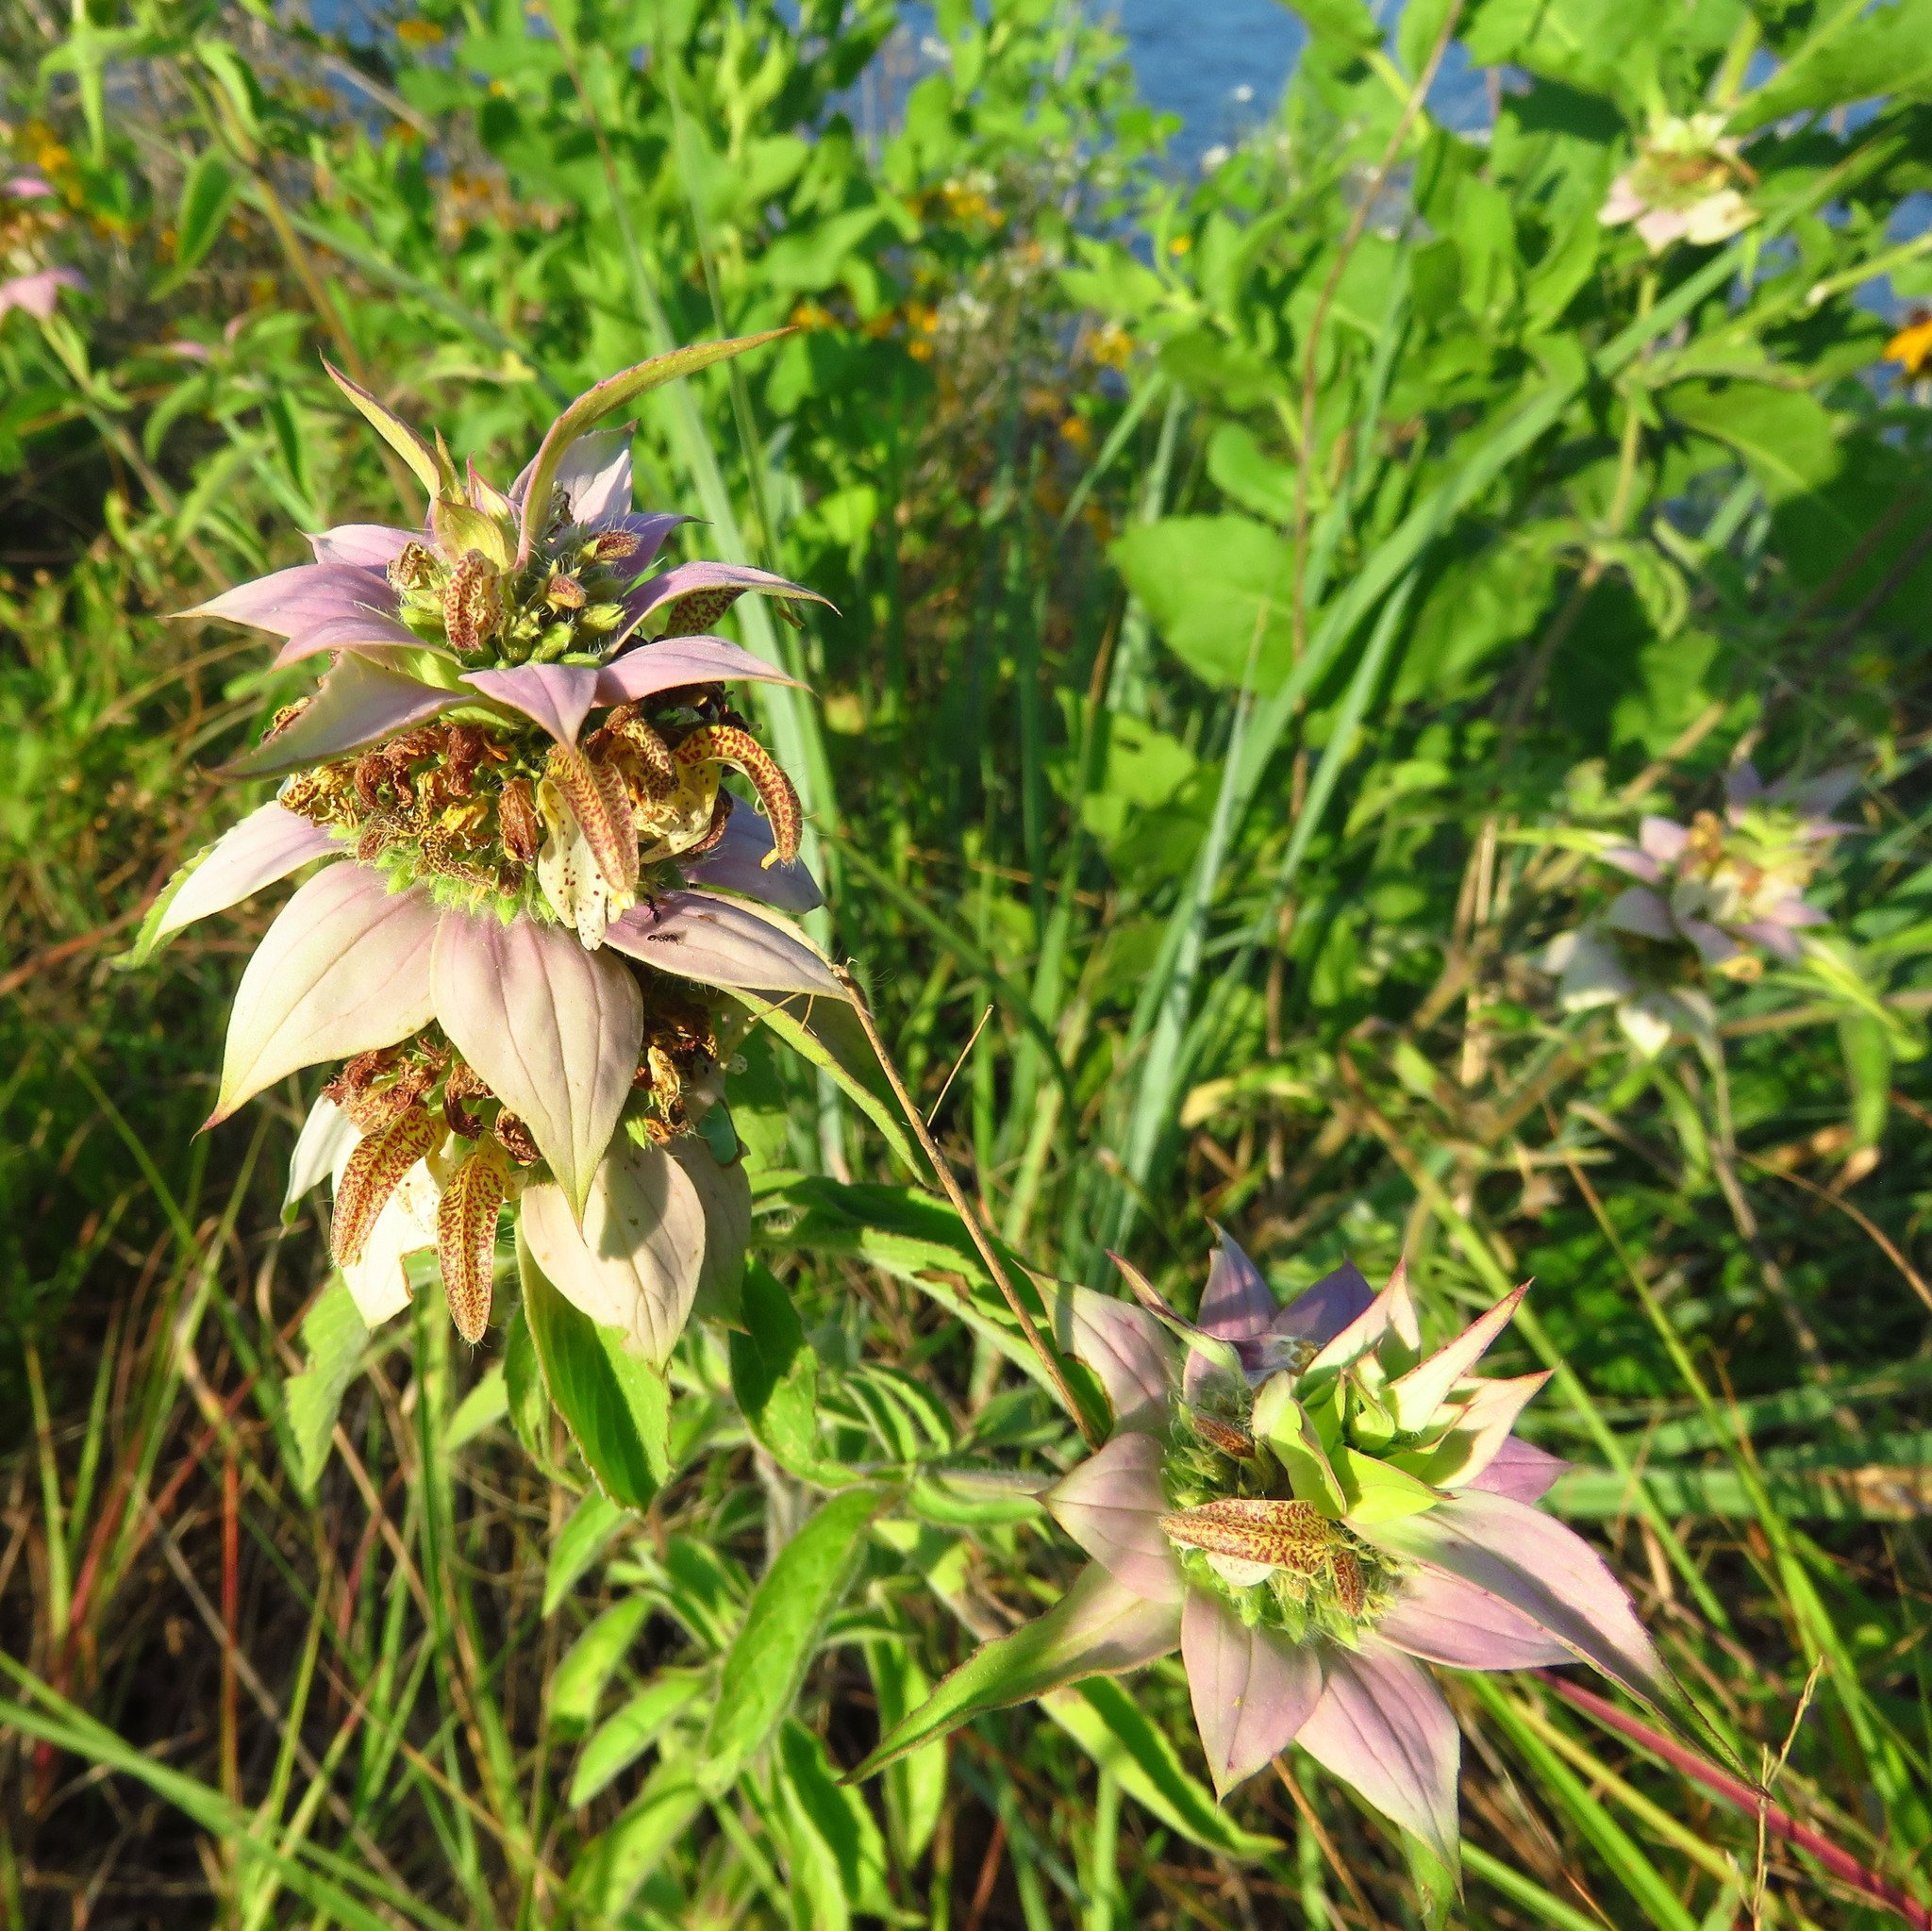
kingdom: Plantae
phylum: Tracheophyta
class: Magnoliopsida
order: Lamiales
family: Lamiaceae
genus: Monarda
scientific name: Monarda punctata
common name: Dotted monarda
